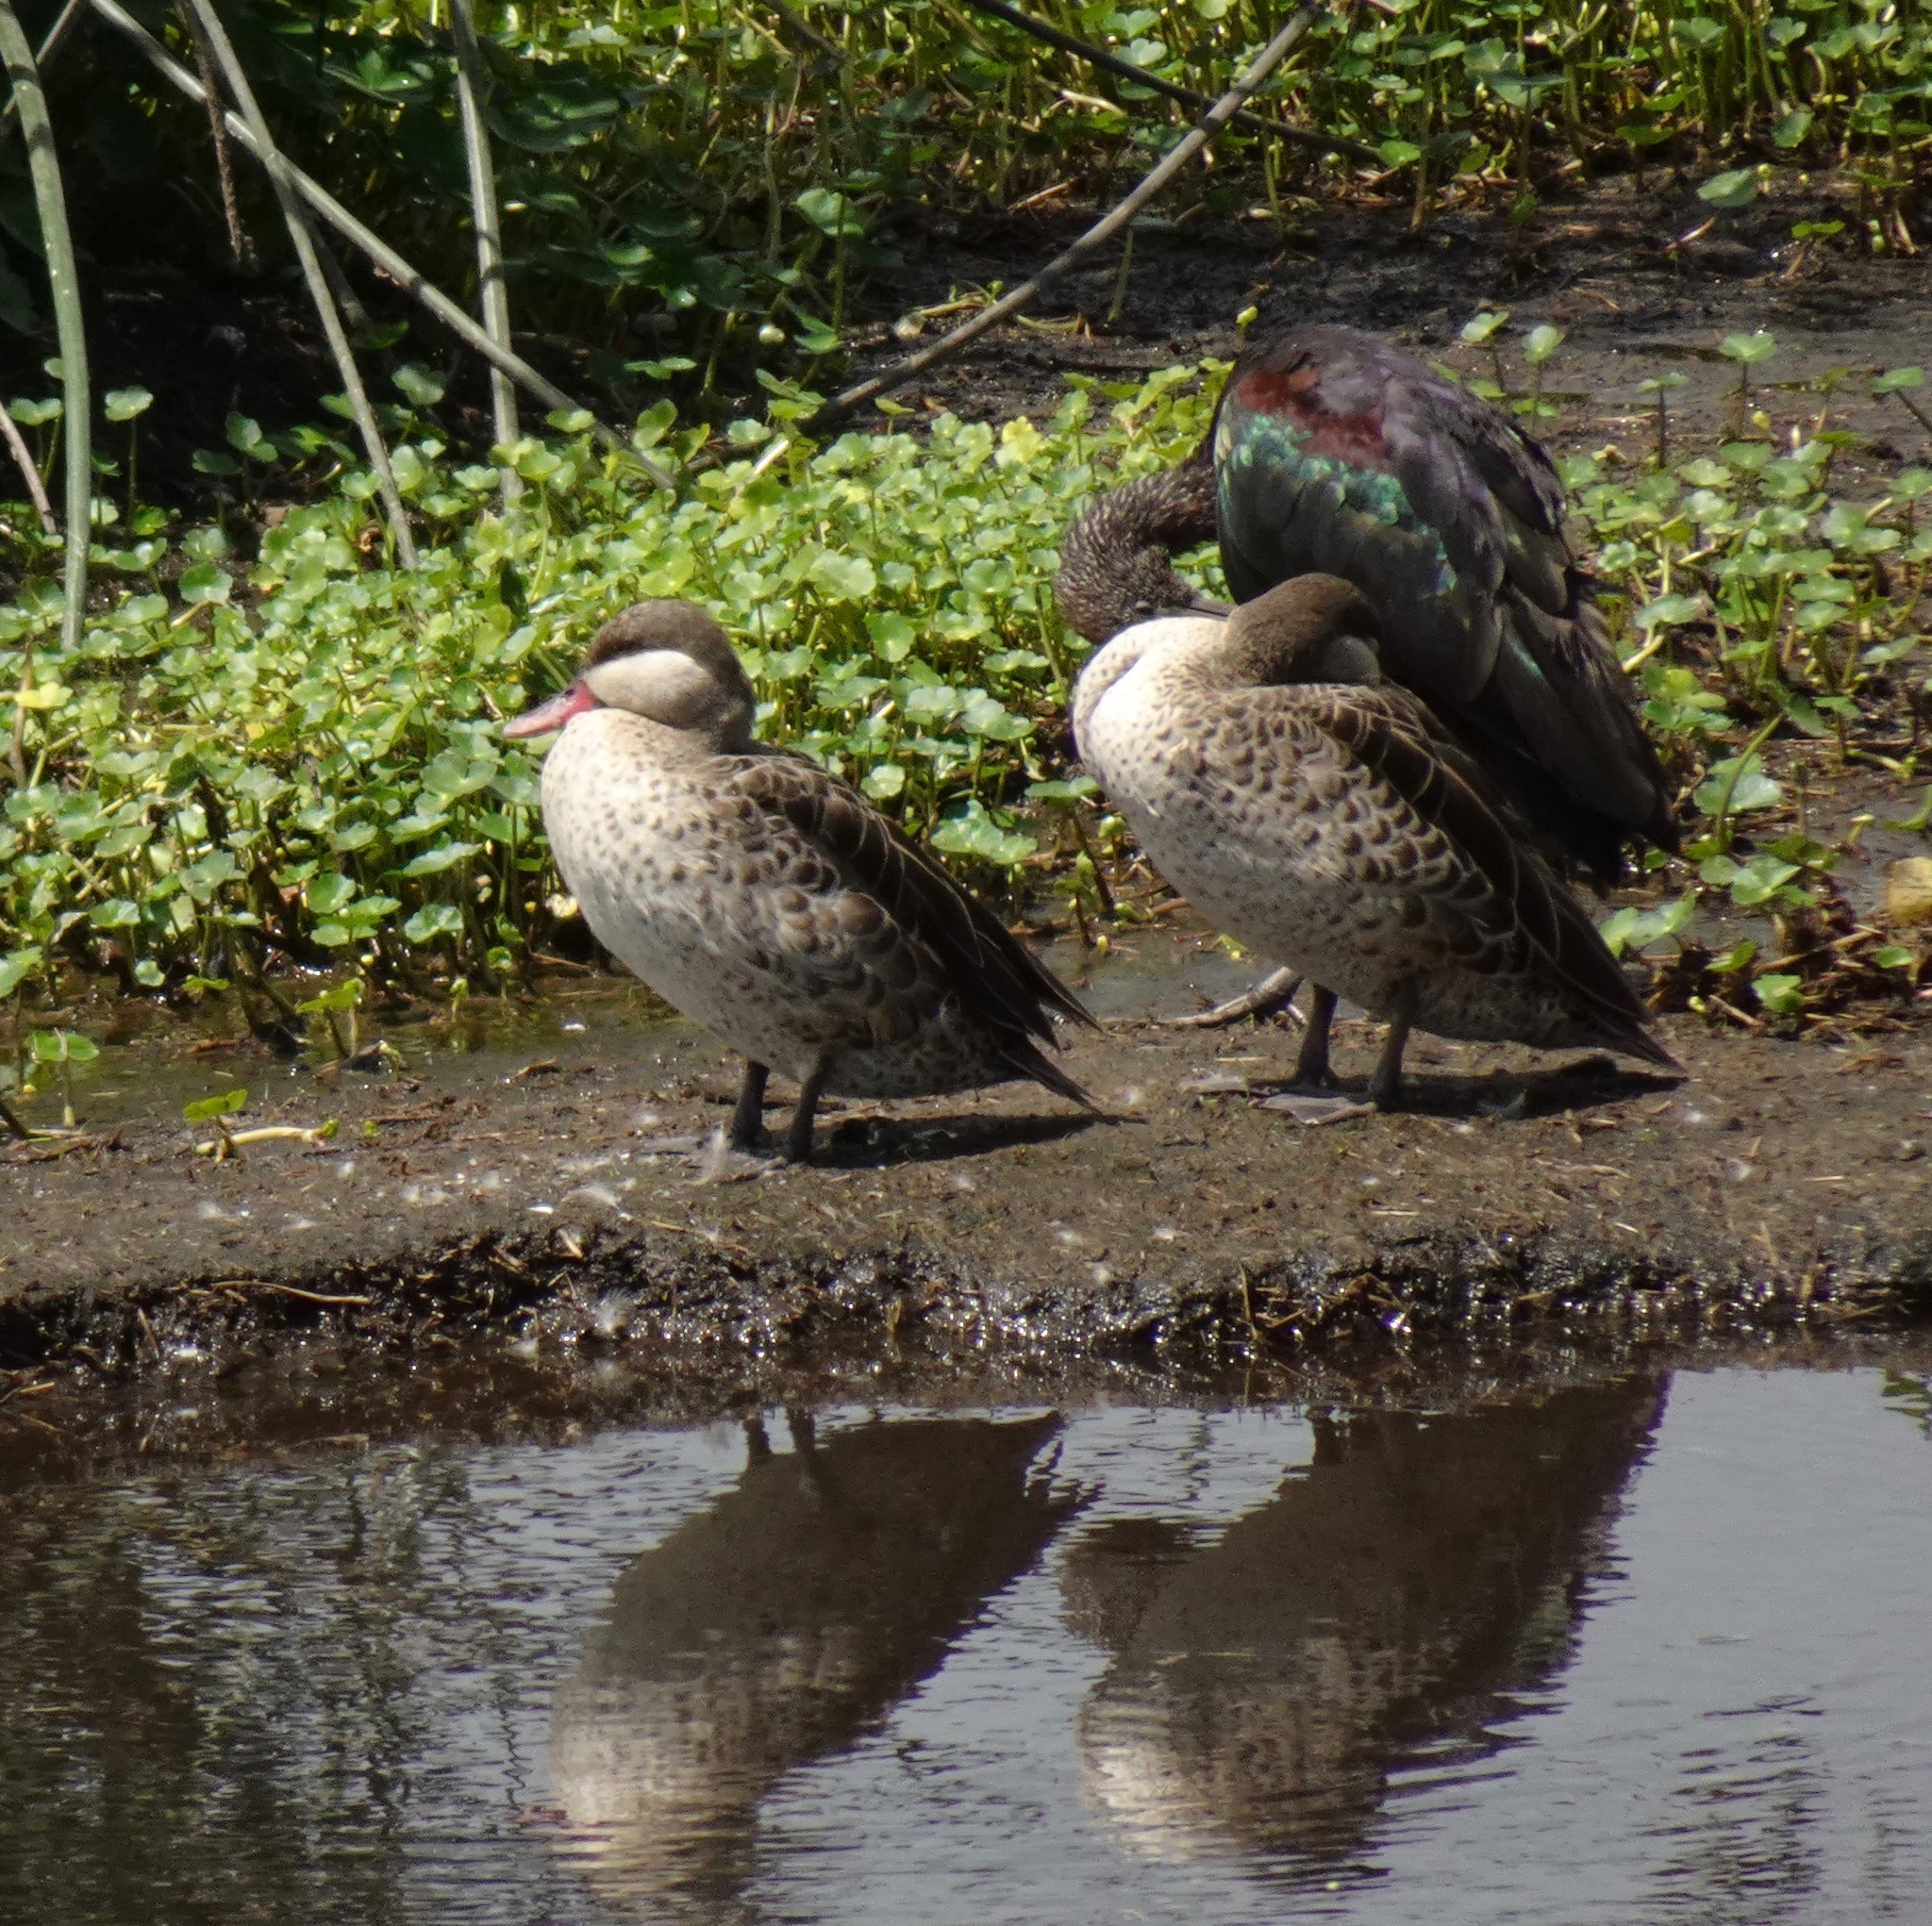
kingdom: Animalia
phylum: Chordata
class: Aves
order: Anseriformes
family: Anatidae
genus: Anas
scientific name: Anas erythrorhyncha
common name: Red-billed teal
